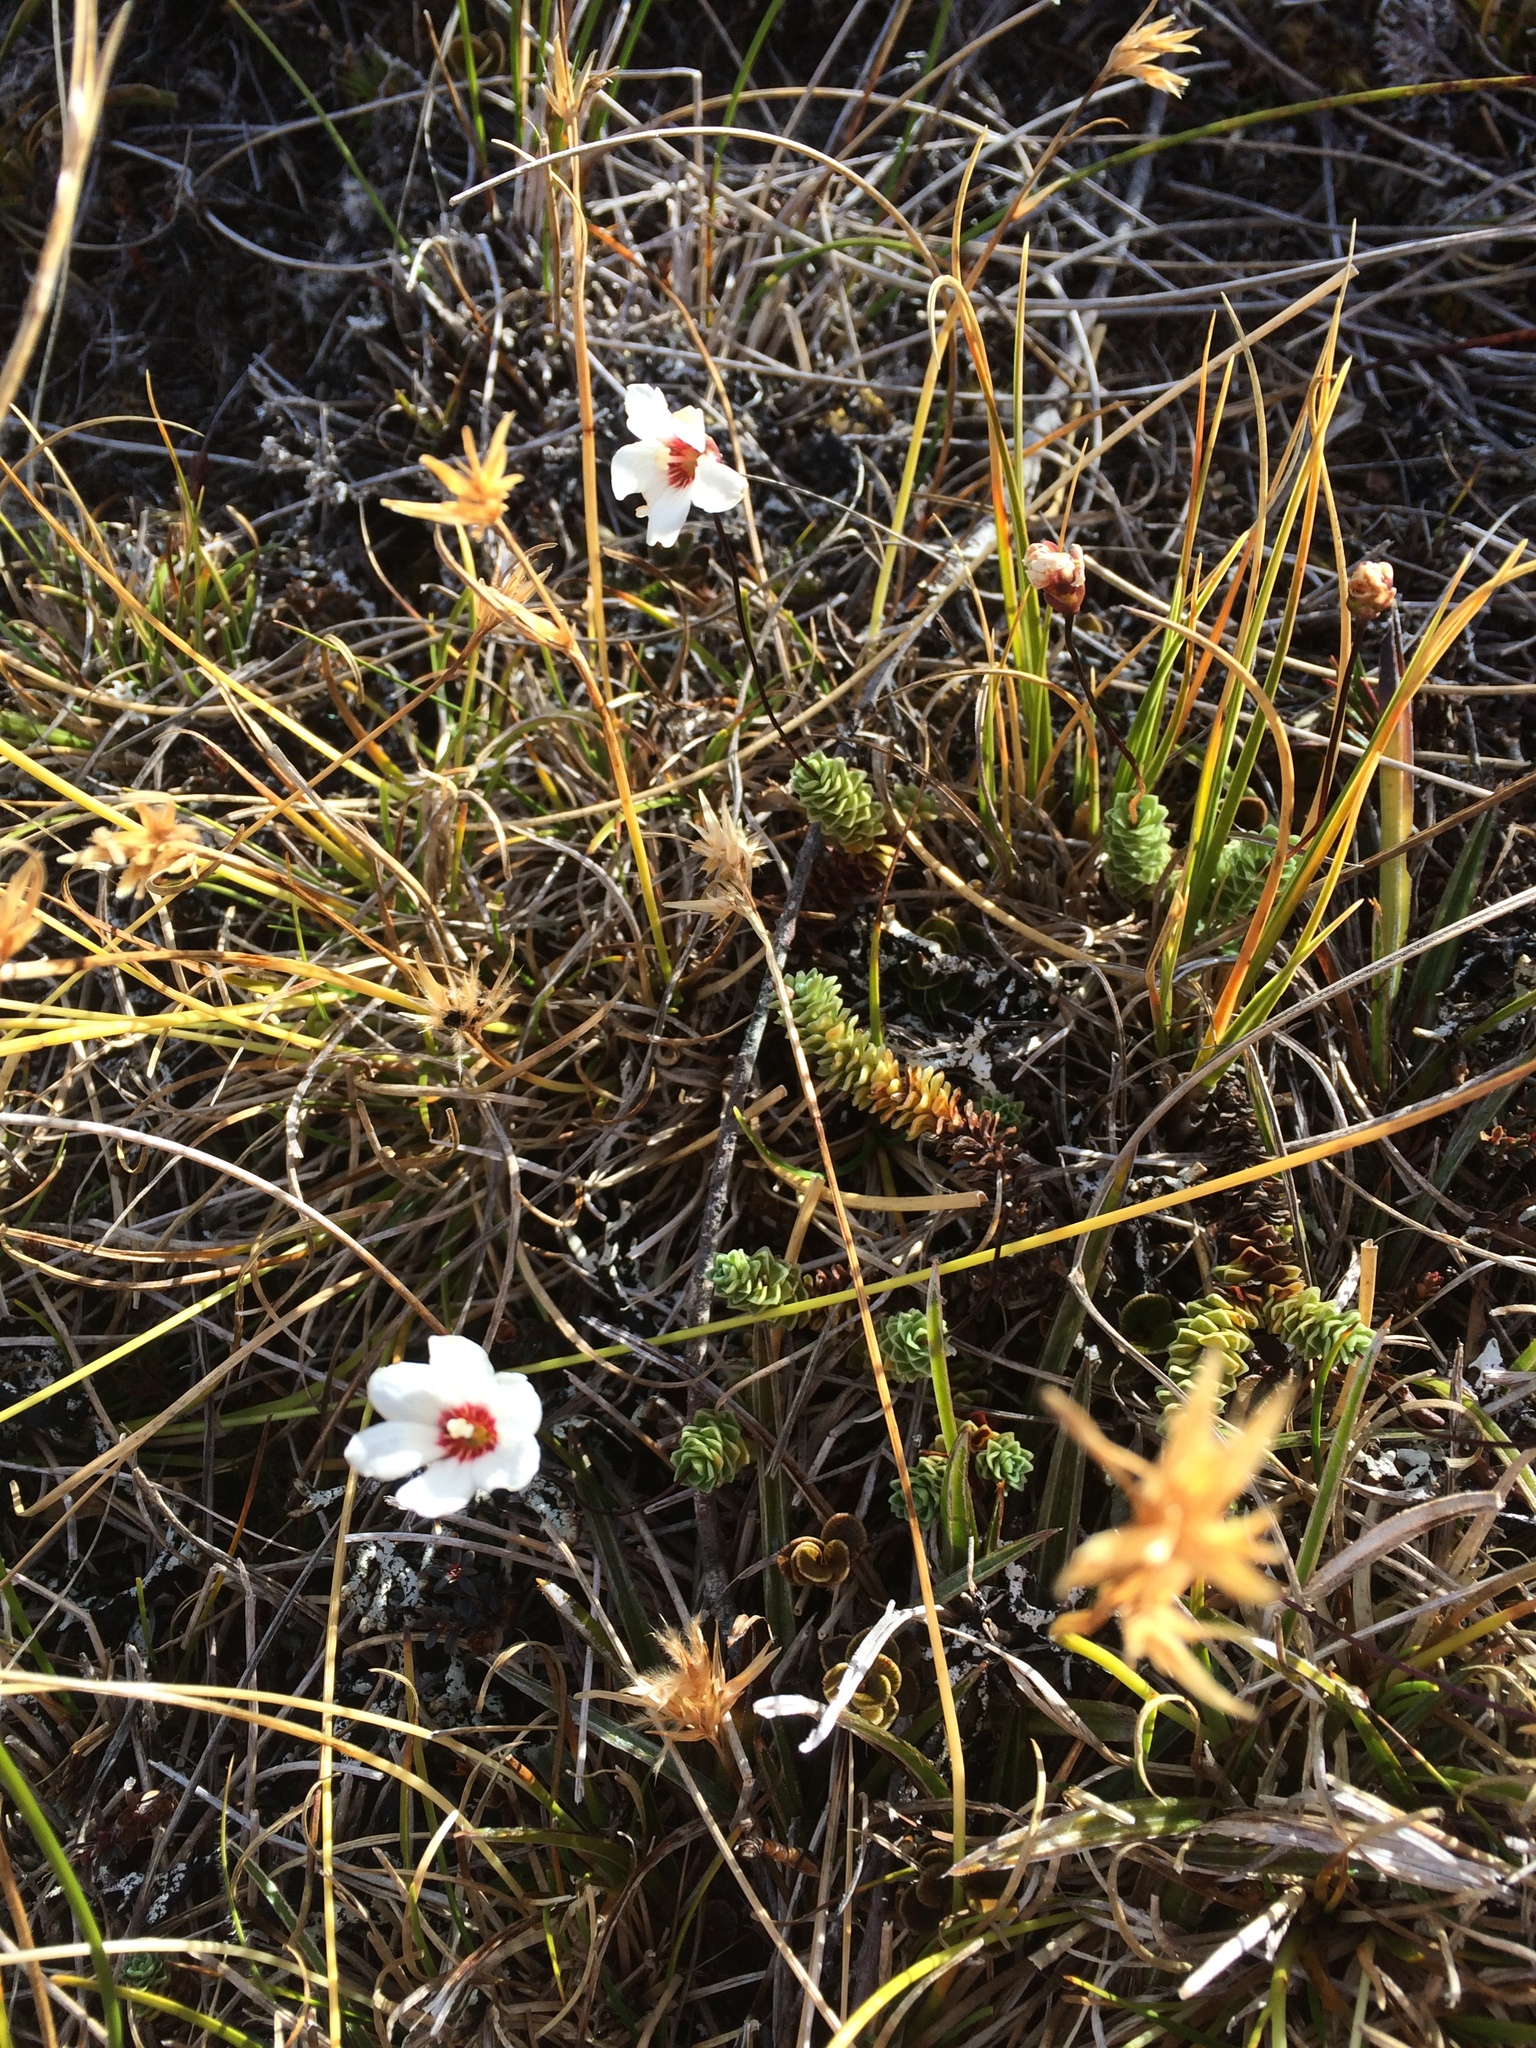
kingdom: Plantae
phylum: Tracheophyta
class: Magnoliopsida
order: Asterales
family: Stylidiaceae
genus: Forstera
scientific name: Forstera sedifolia
